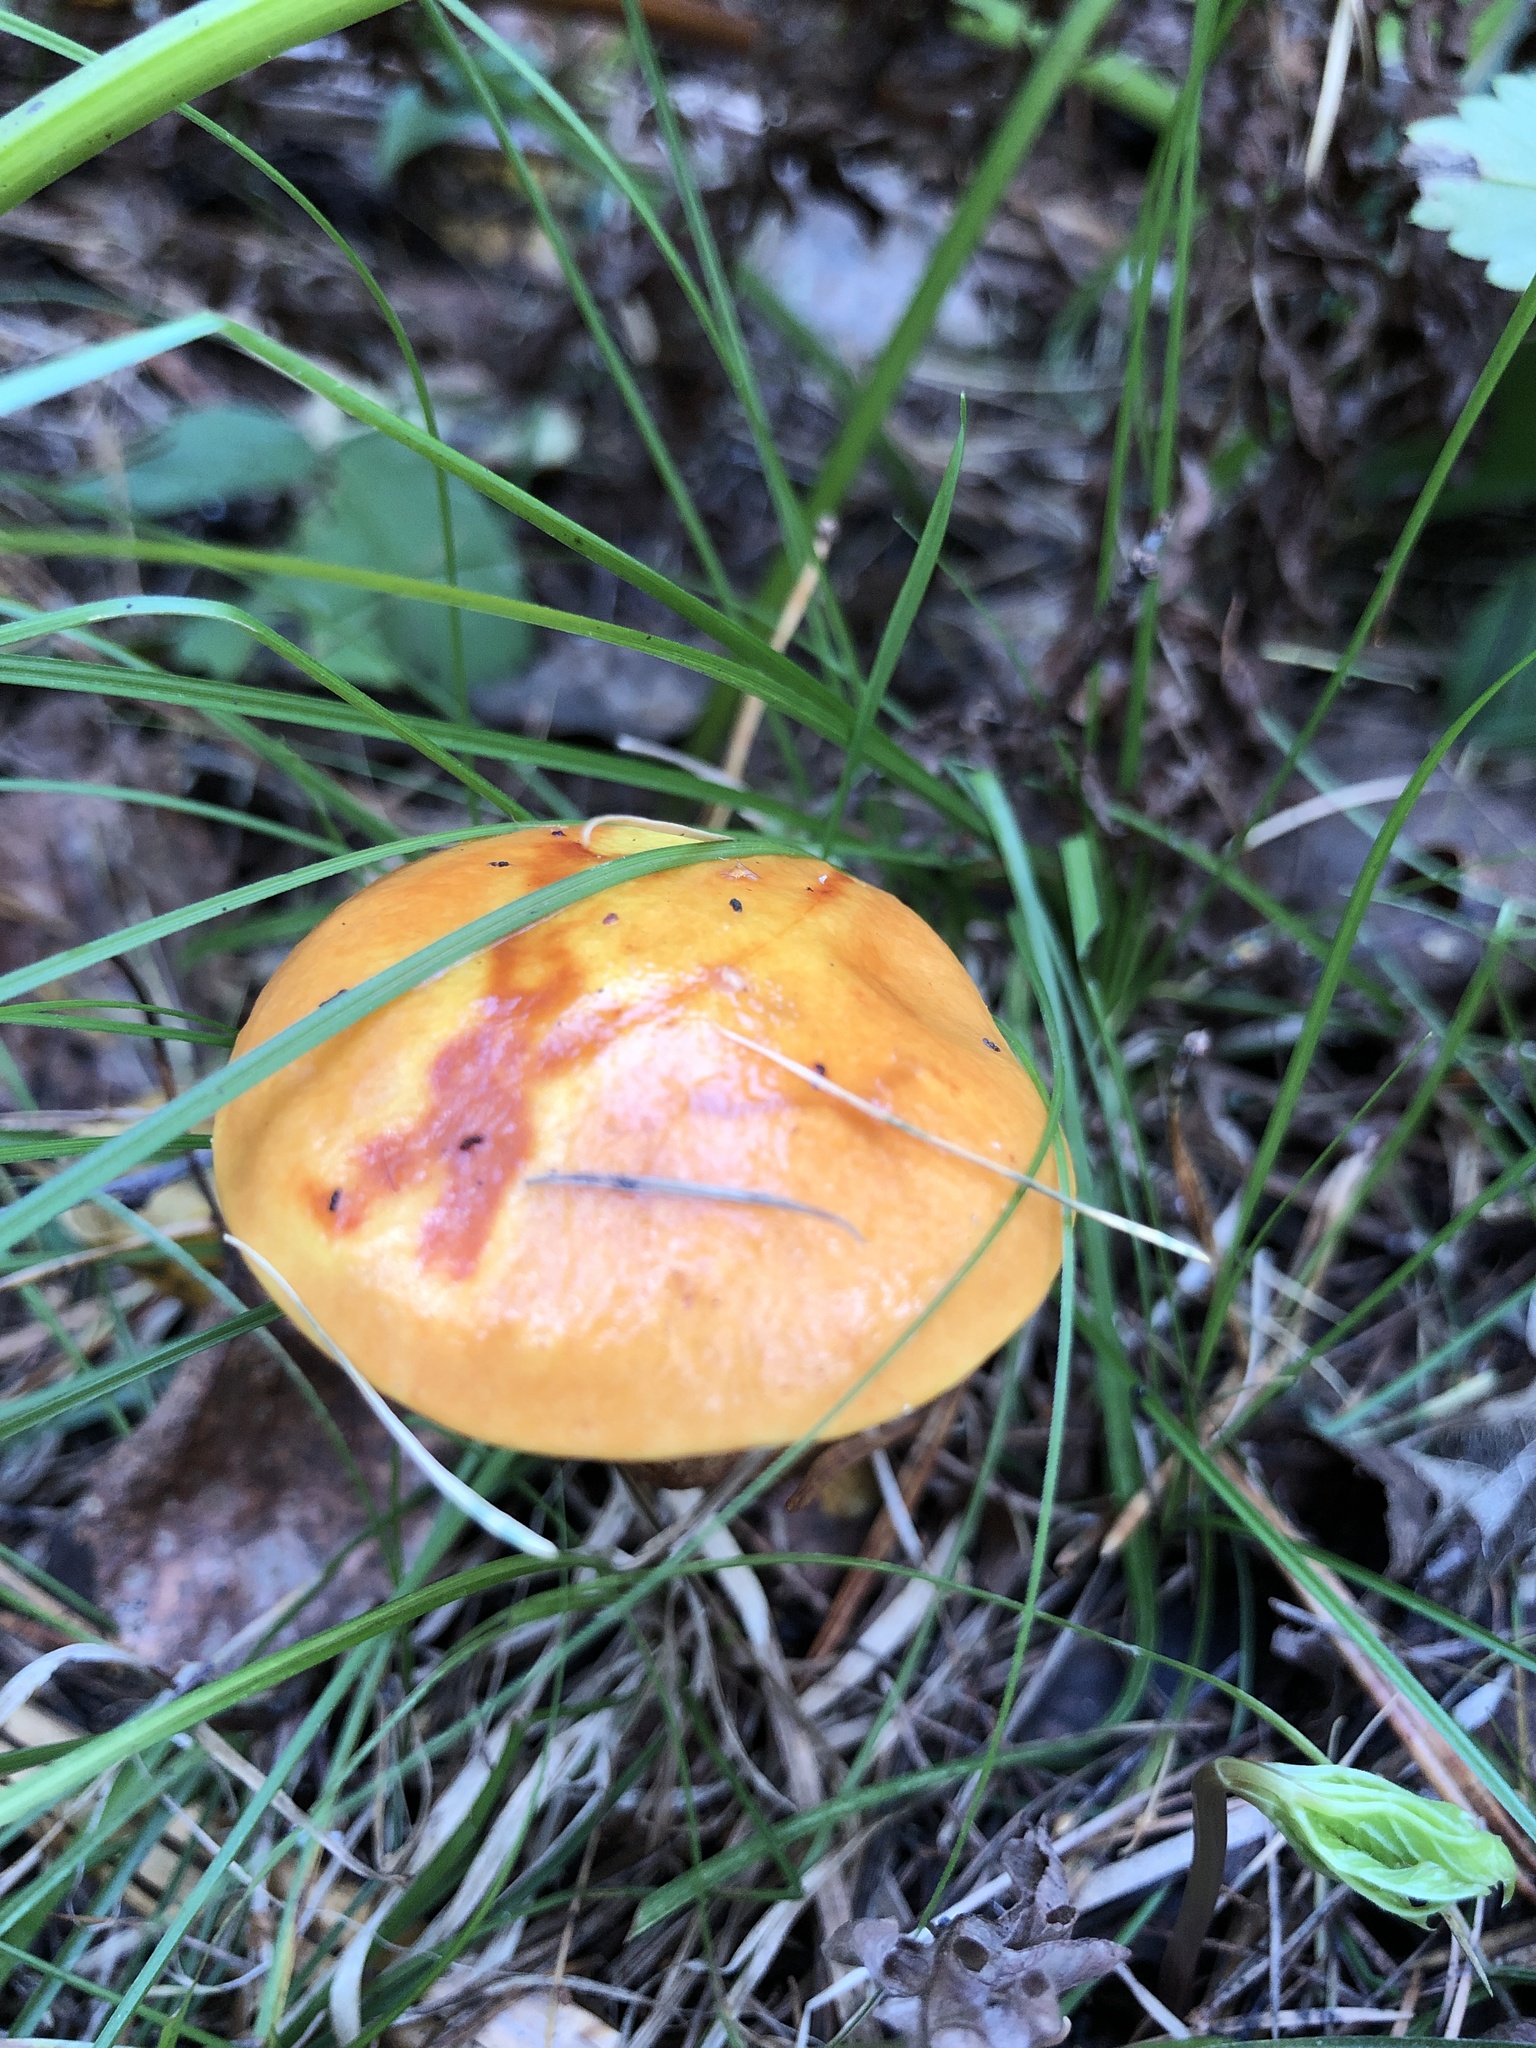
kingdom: Fungi
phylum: Basidiomycota
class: Agaricomycetes
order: Boletales
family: Suillaceae
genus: Suillus
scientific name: Suillus grevillei
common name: Larch bolete
